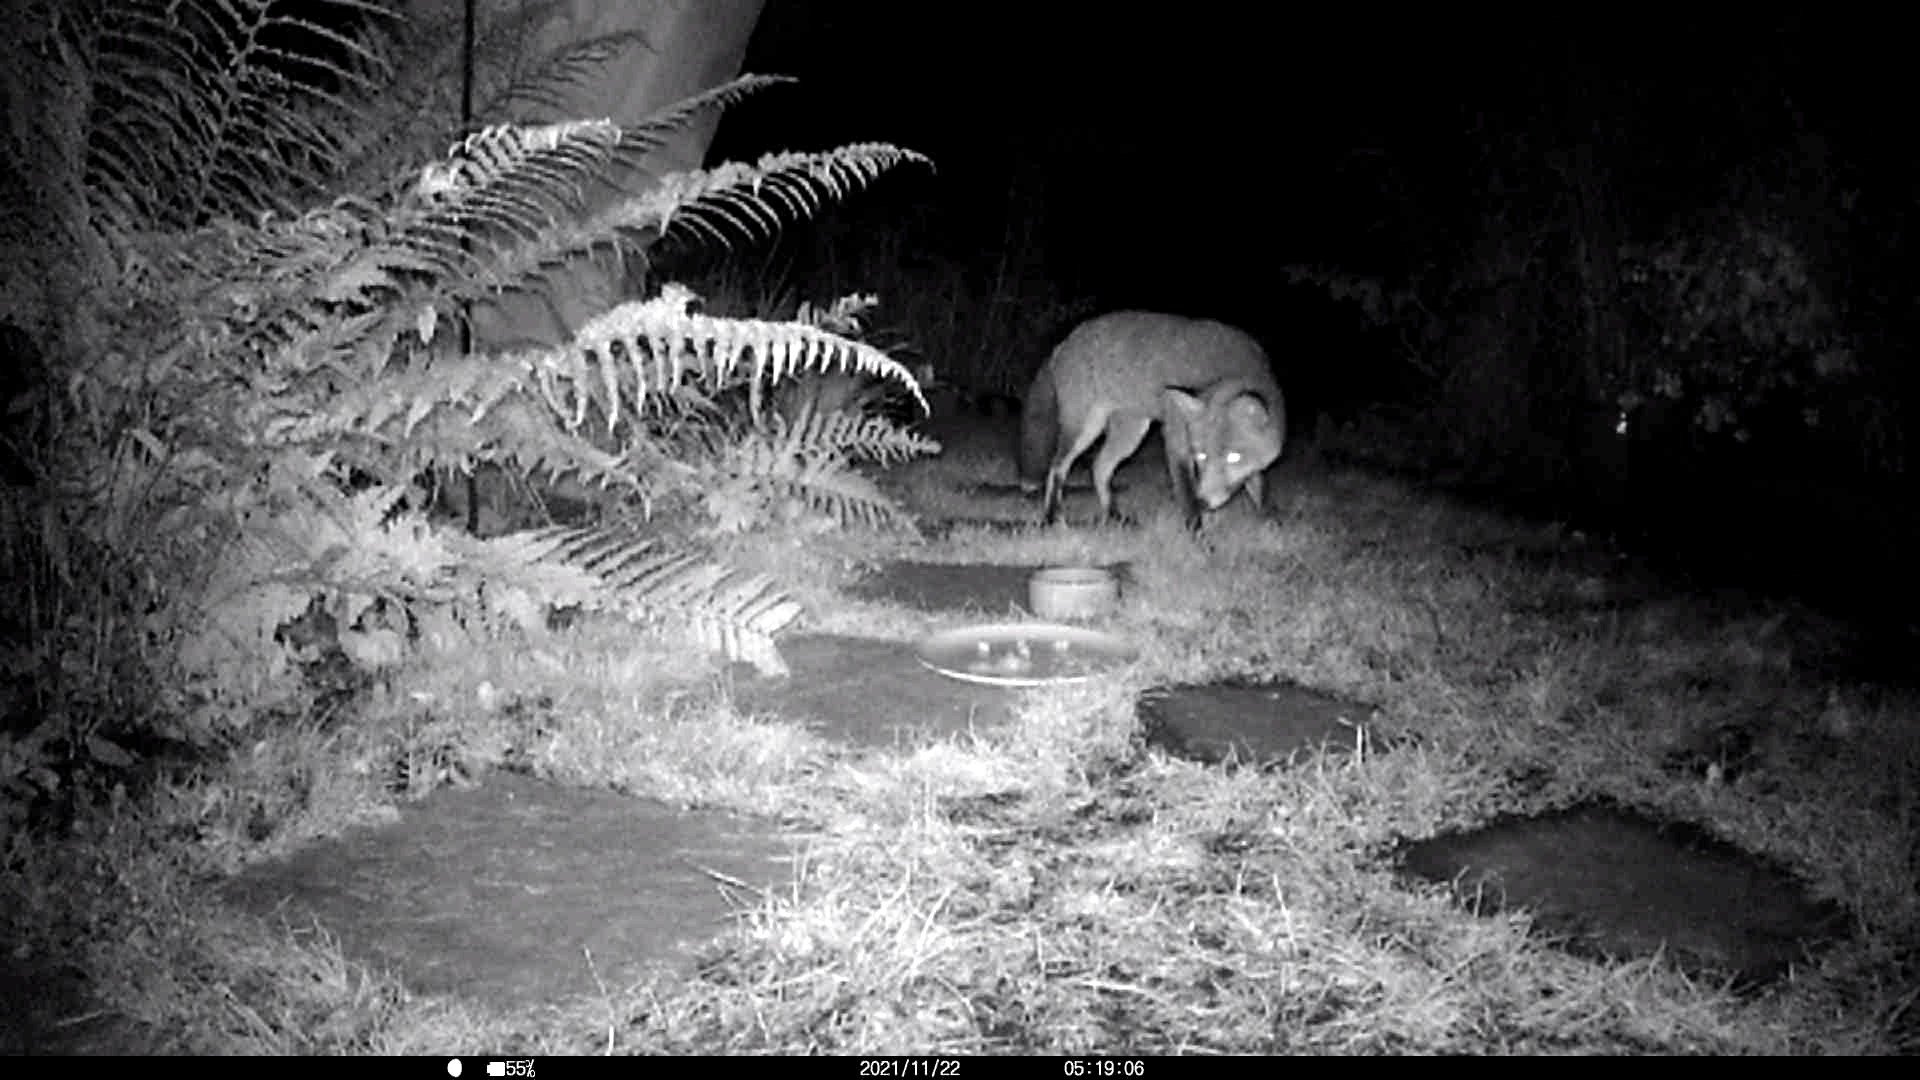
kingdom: Animalia
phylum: Chordata
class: Mammalia
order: Carnivora
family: Canidae
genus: Vulpes
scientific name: Vulpes vulpes
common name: Red fox
